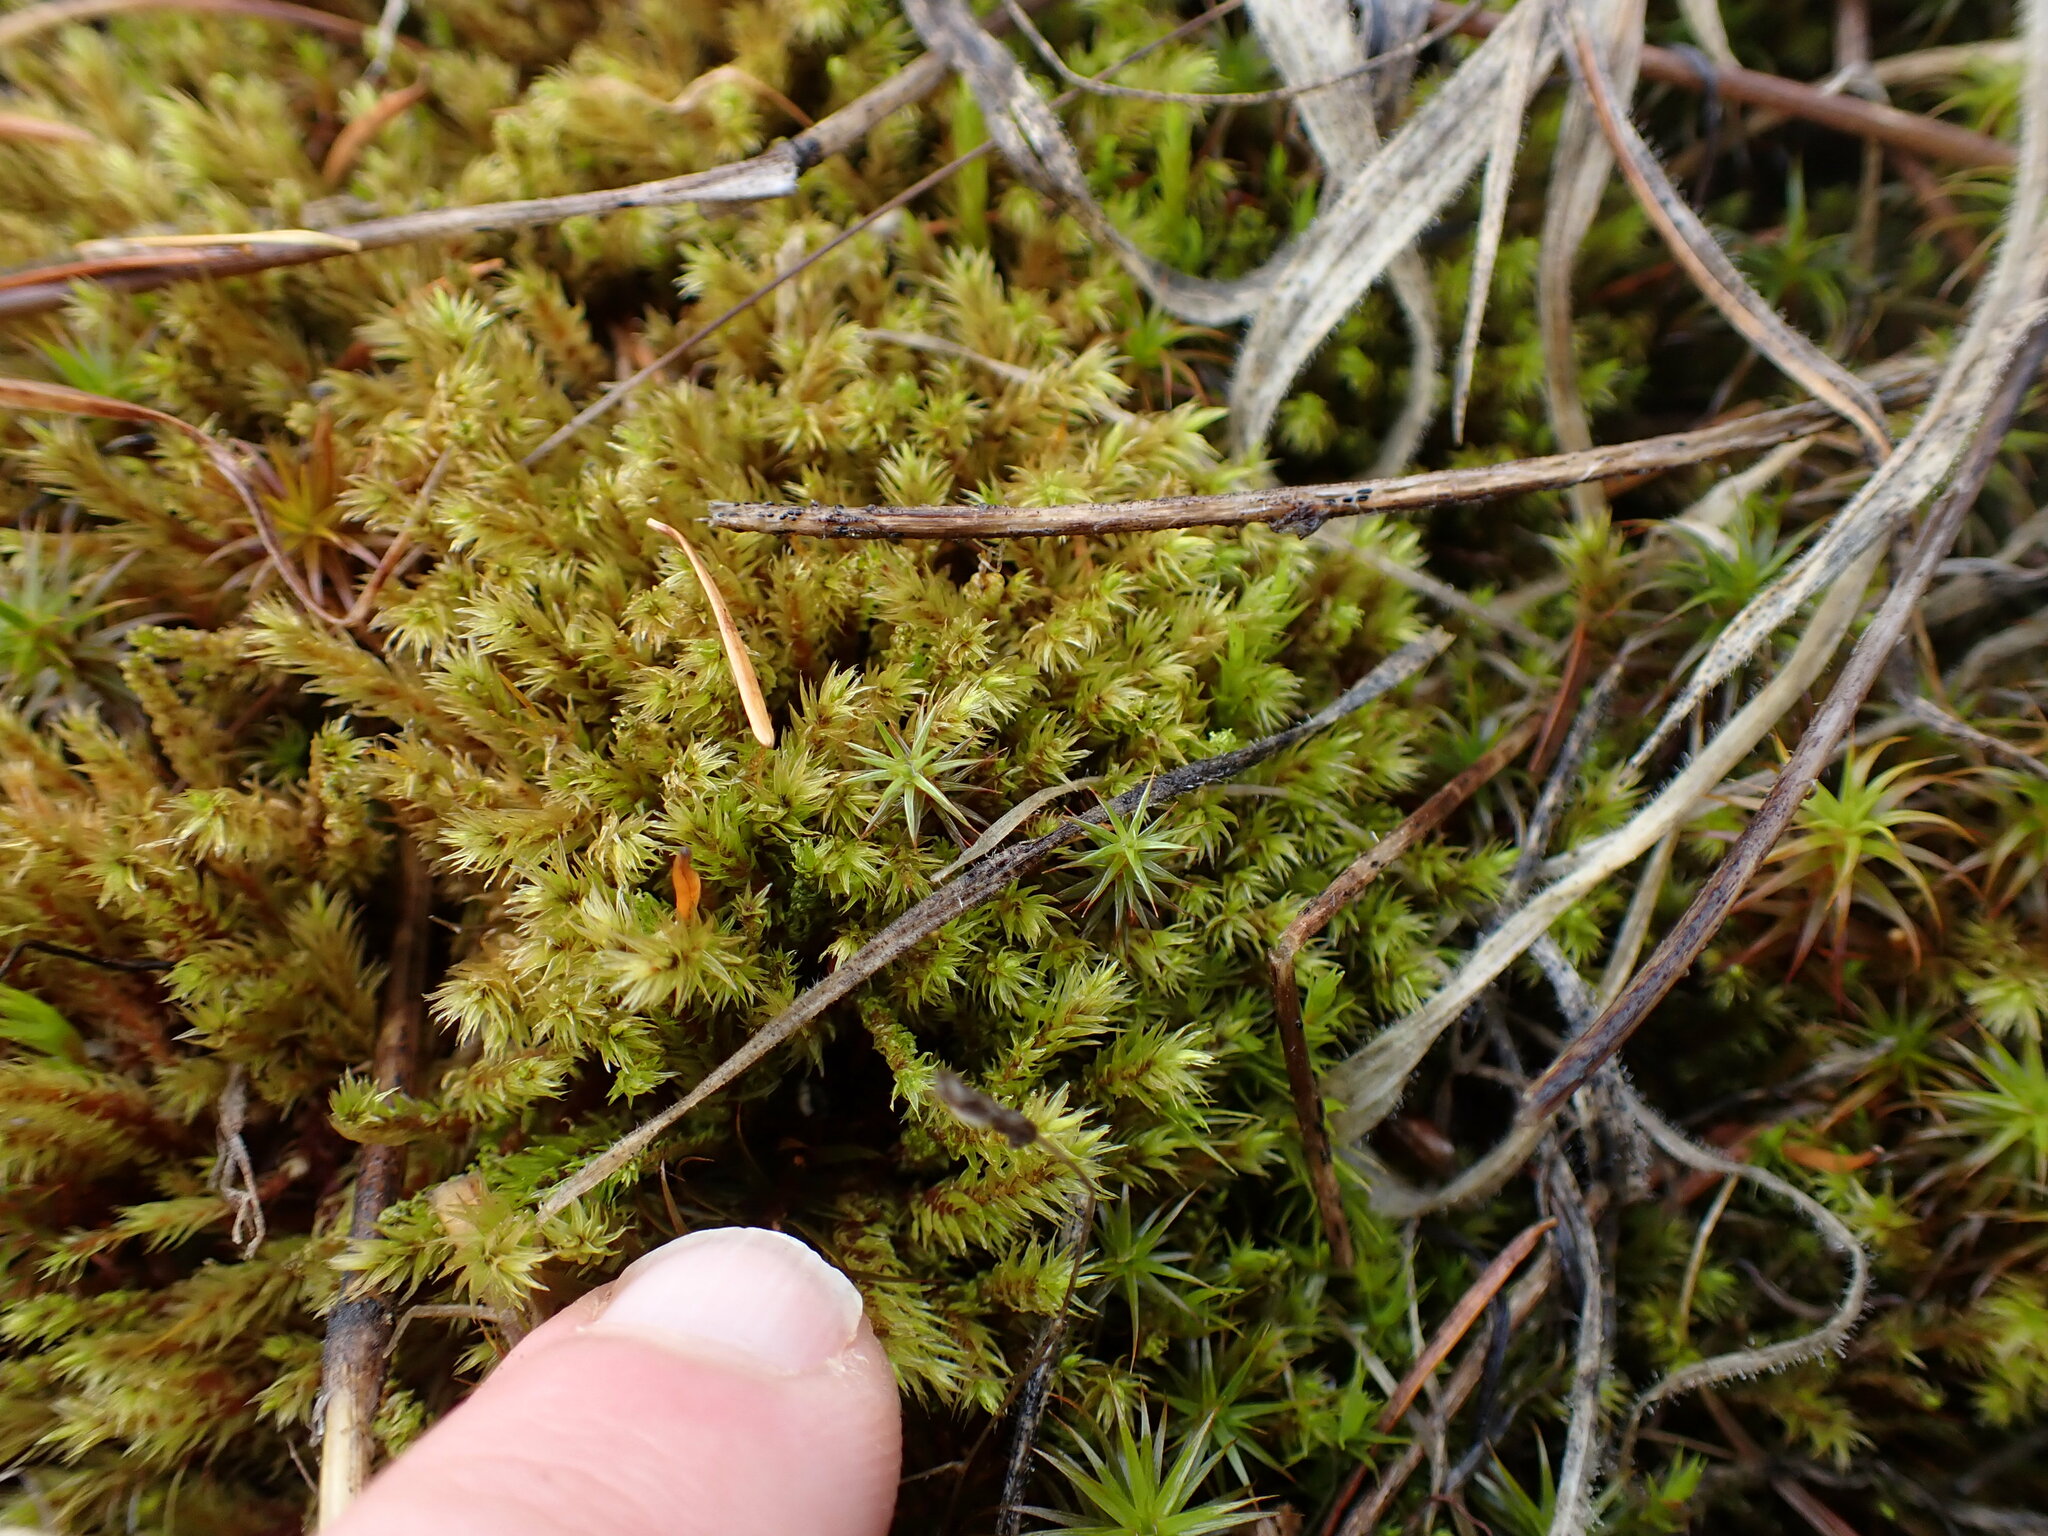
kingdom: Plantae
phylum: Bryophyta
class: Bryopsida
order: Aulacomniales
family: Aulacomniaceae
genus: Aulacomnium
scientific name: Aulacomnium palustre
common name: Bog groove-moss
